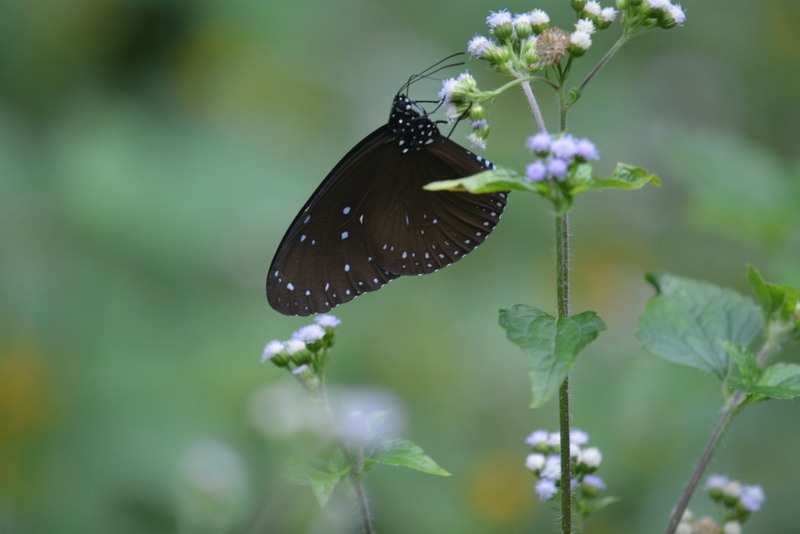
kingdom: Animalia
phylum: Arthropoda
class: Insecta
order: Lepidoptera
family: Nymphalidae
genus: Euploea
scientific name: Euploea mulciber
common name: Striped blue crow butterfly
